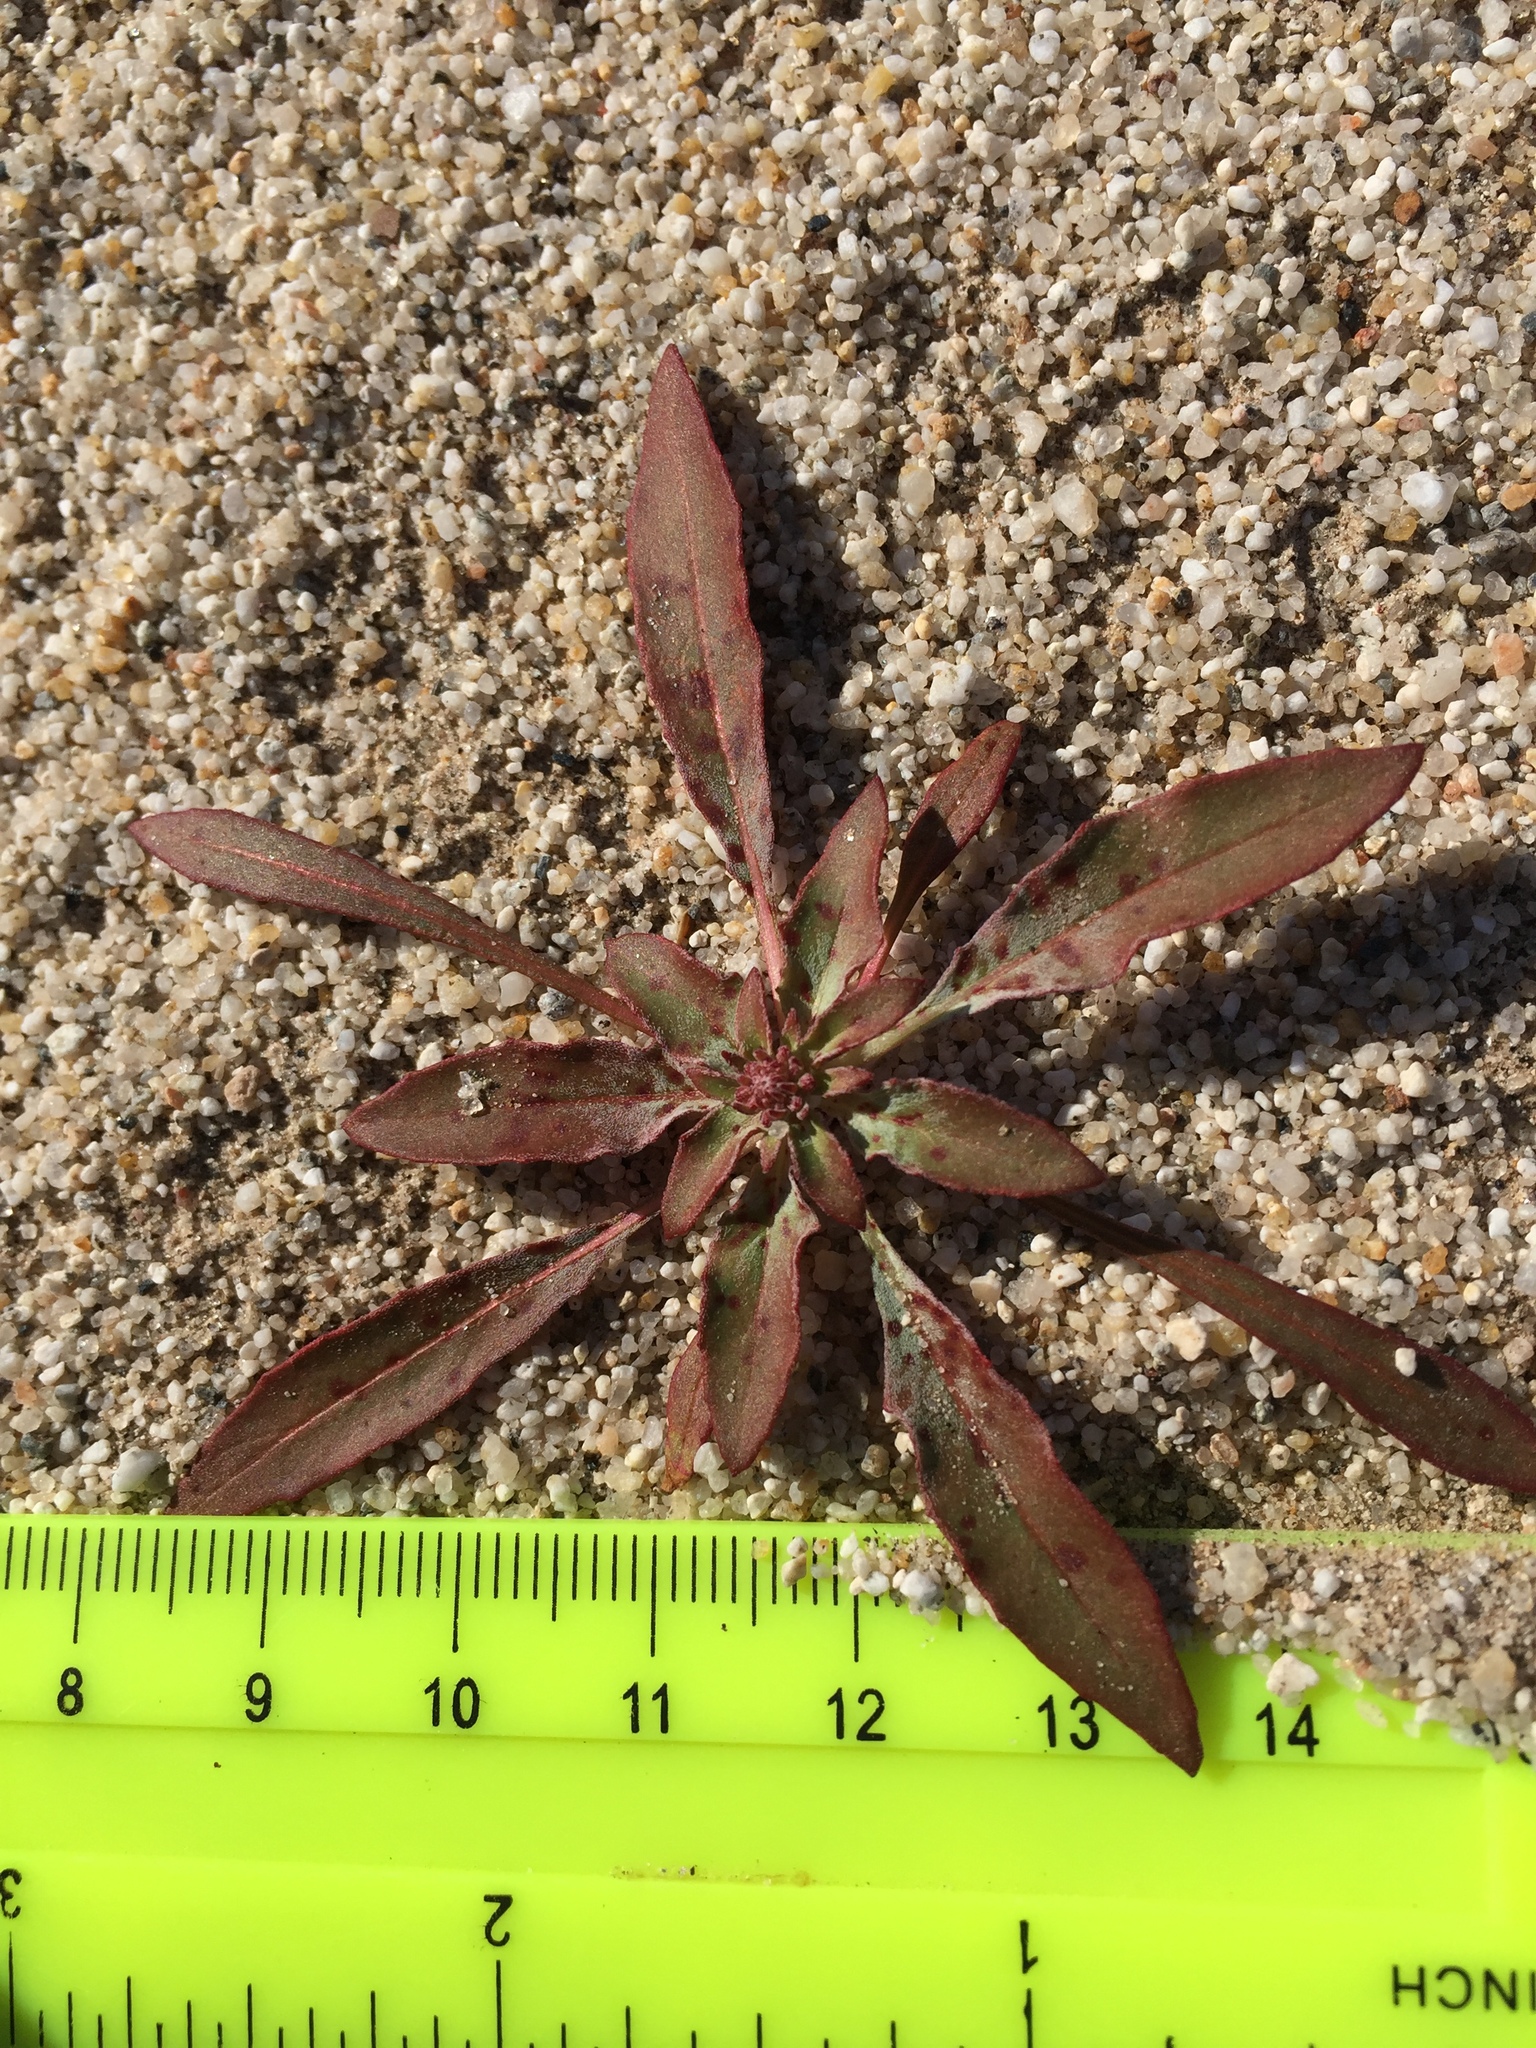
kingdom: Plantae
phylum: Tracheophyta
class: Magnoliopsida
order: Myrtales
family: Onagraceae
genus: Eremothera
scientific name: Eremothera boothii
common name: Booth's evening primrose
